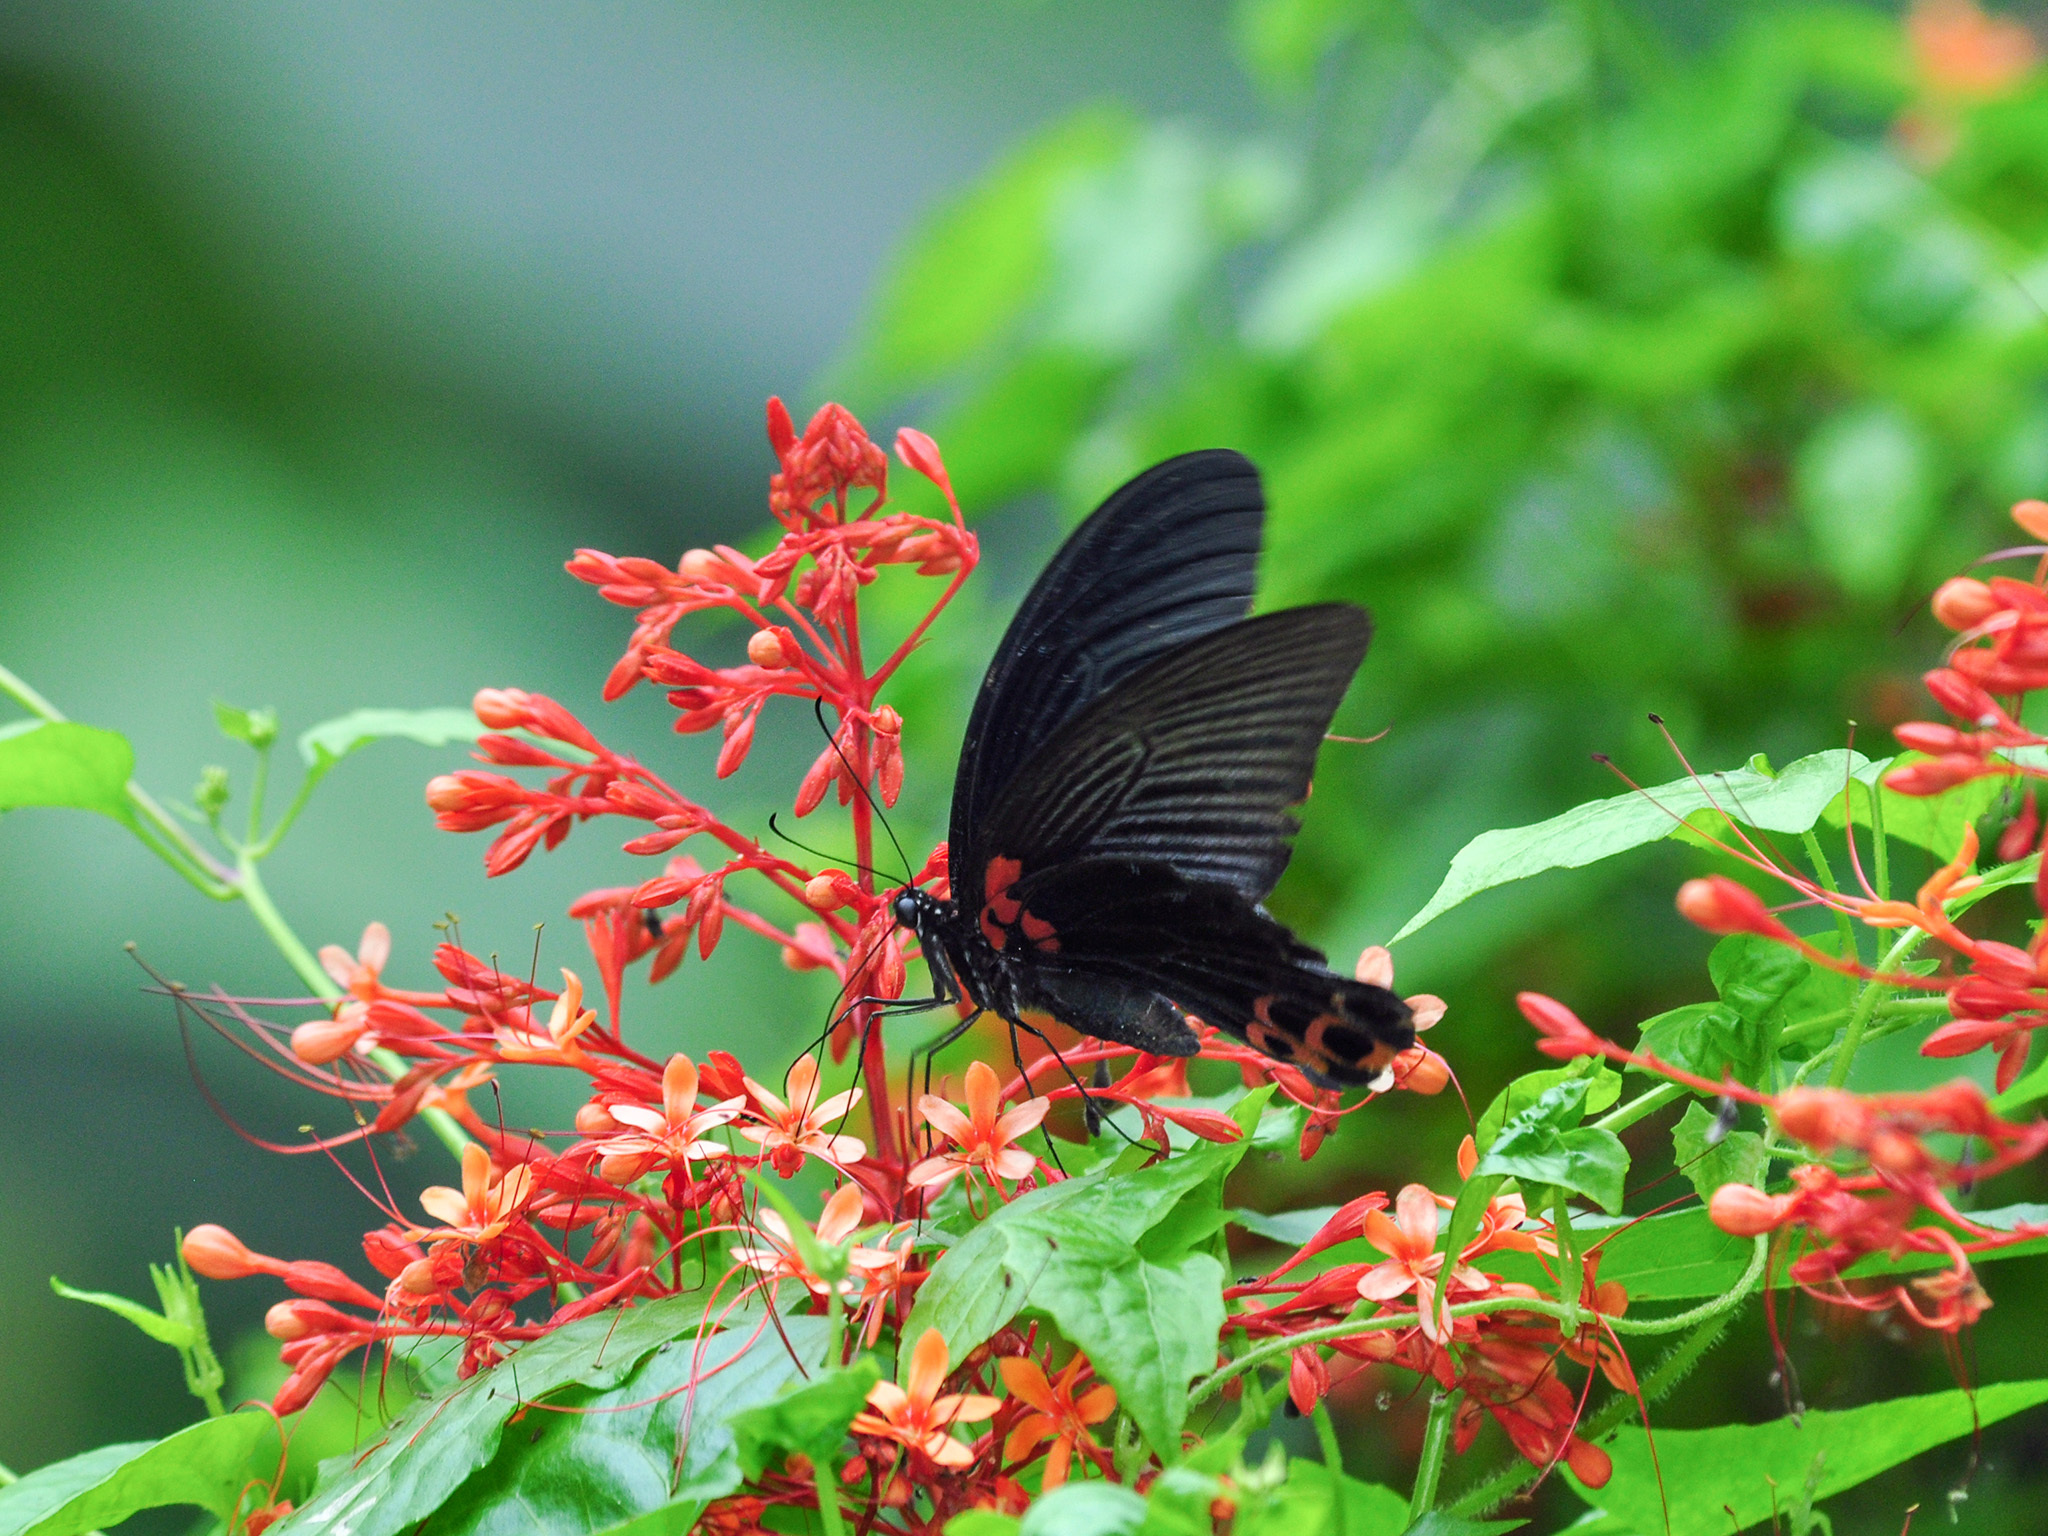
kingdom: Animalia
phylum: Arthropoda
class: Insecta
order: Lepidoptera
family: Papilionidae
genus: Papilio
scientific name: Papilio memnon
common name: Great mormon
